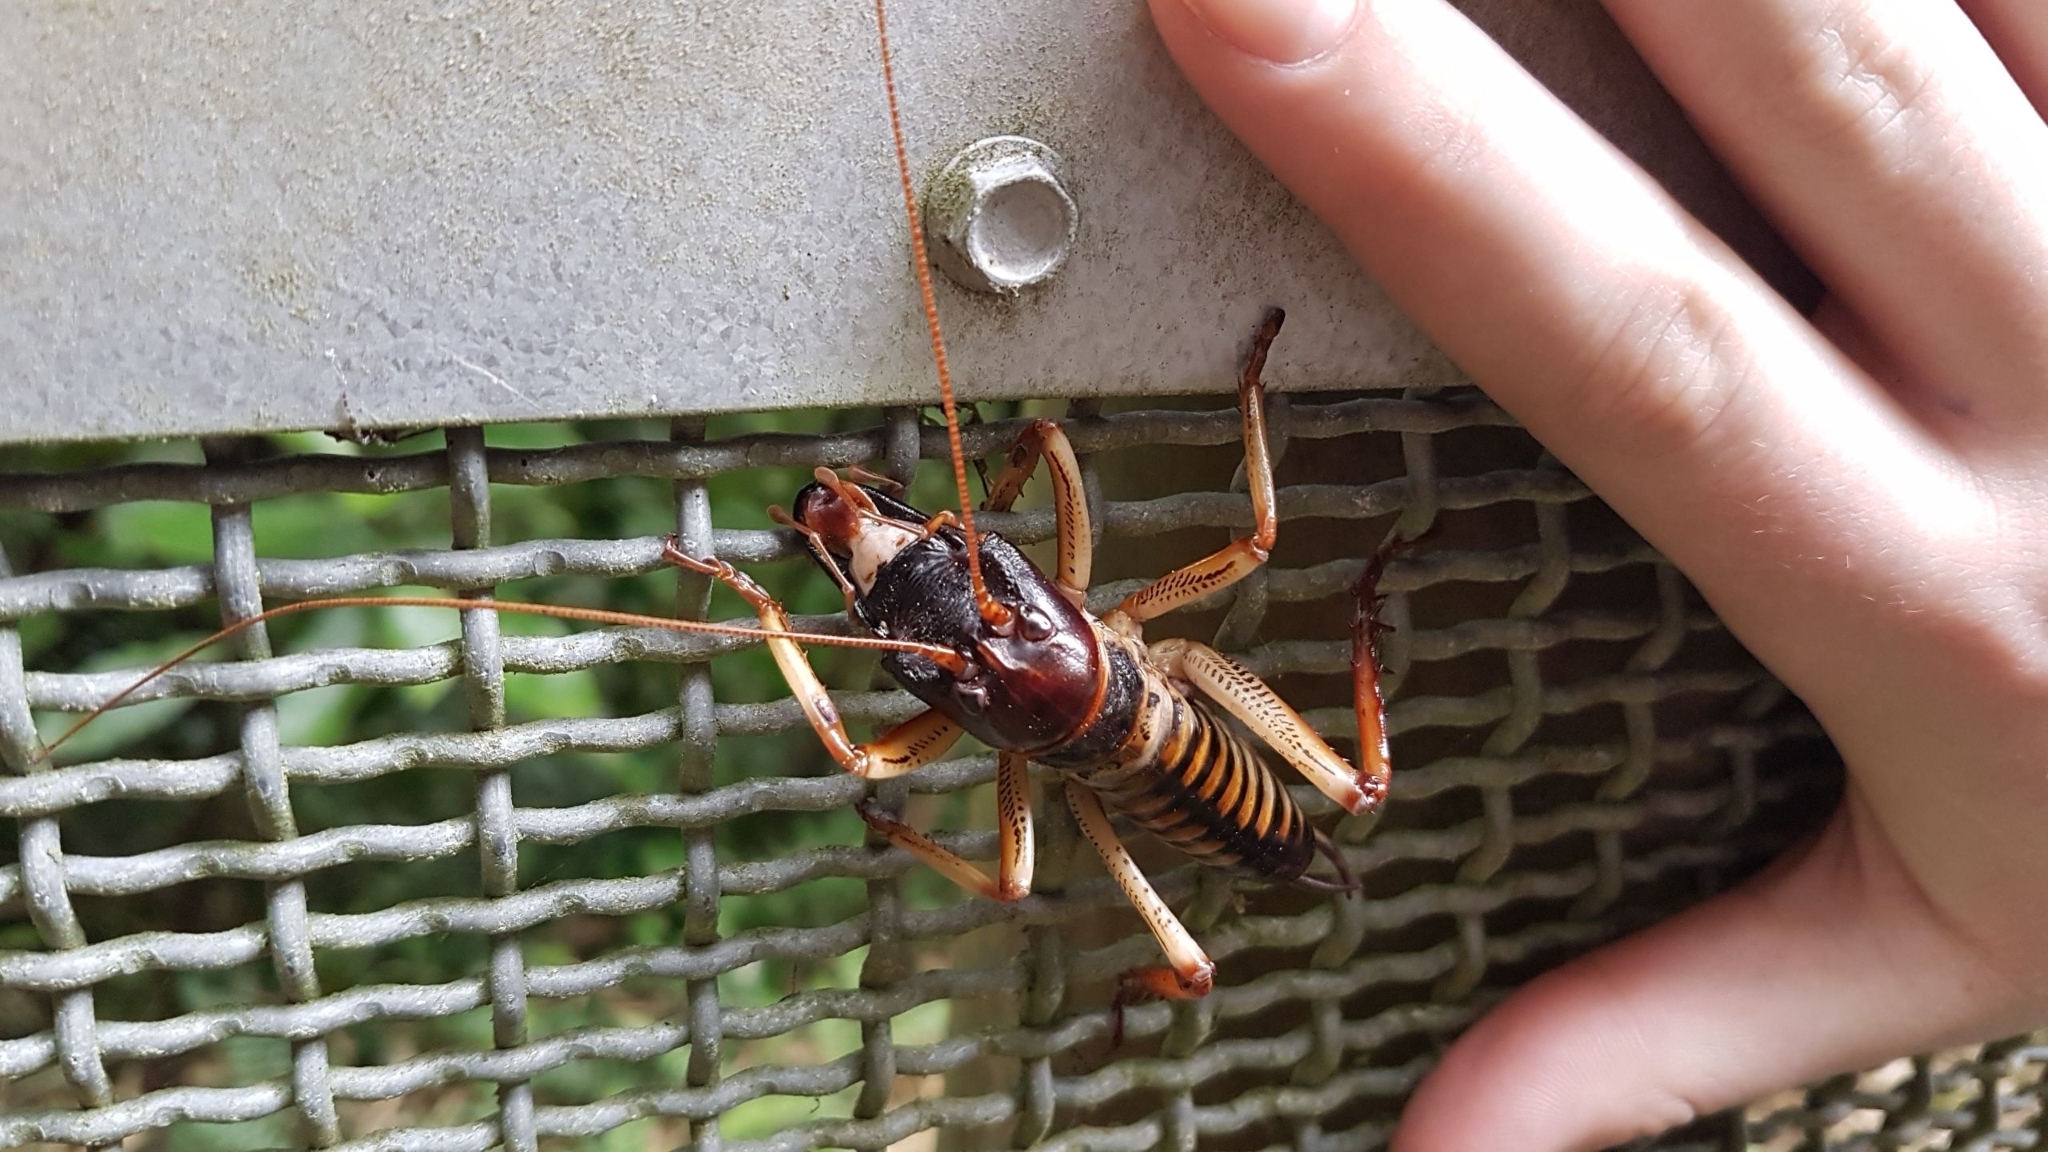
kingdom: Animalia
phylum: Arthropoda
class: Insecta
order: Orthoptera
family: Anostostomatidae
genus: Hemideina
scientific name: Hemideina crassidens
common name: Wellington tree weta
